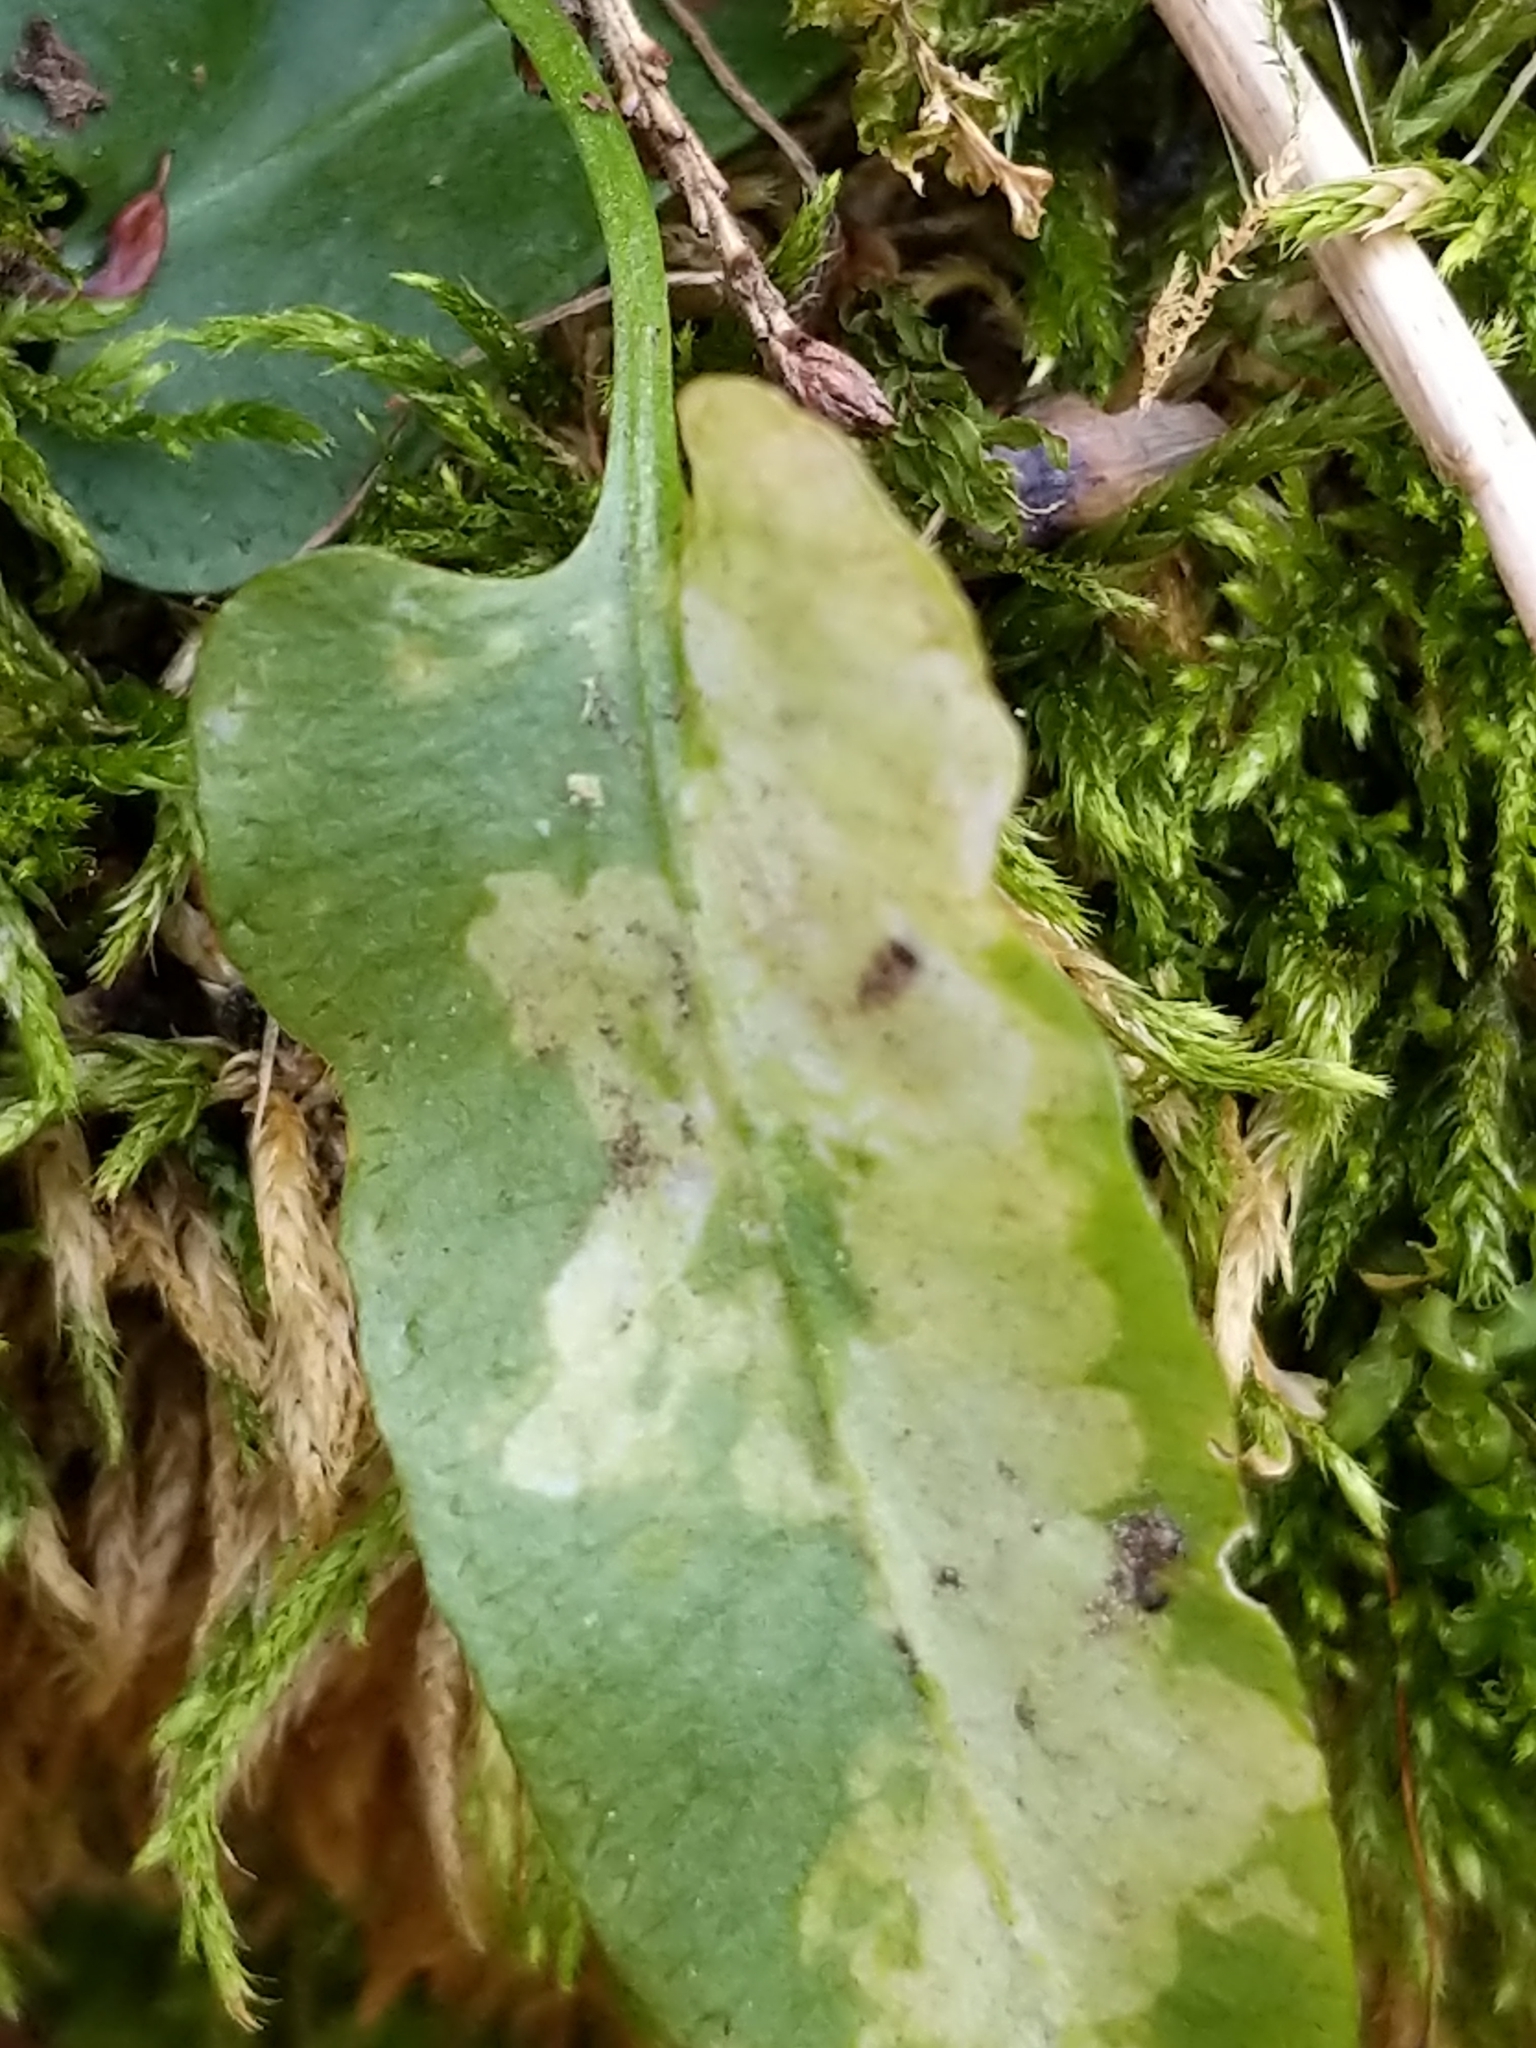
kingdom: Plantae
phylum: Tracheophyta
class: Polypodiopsida
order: Polypodiales
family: Aspleniaceae
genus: Asplenium
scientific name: Asplenium rhizophyllum
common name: Walking fern
